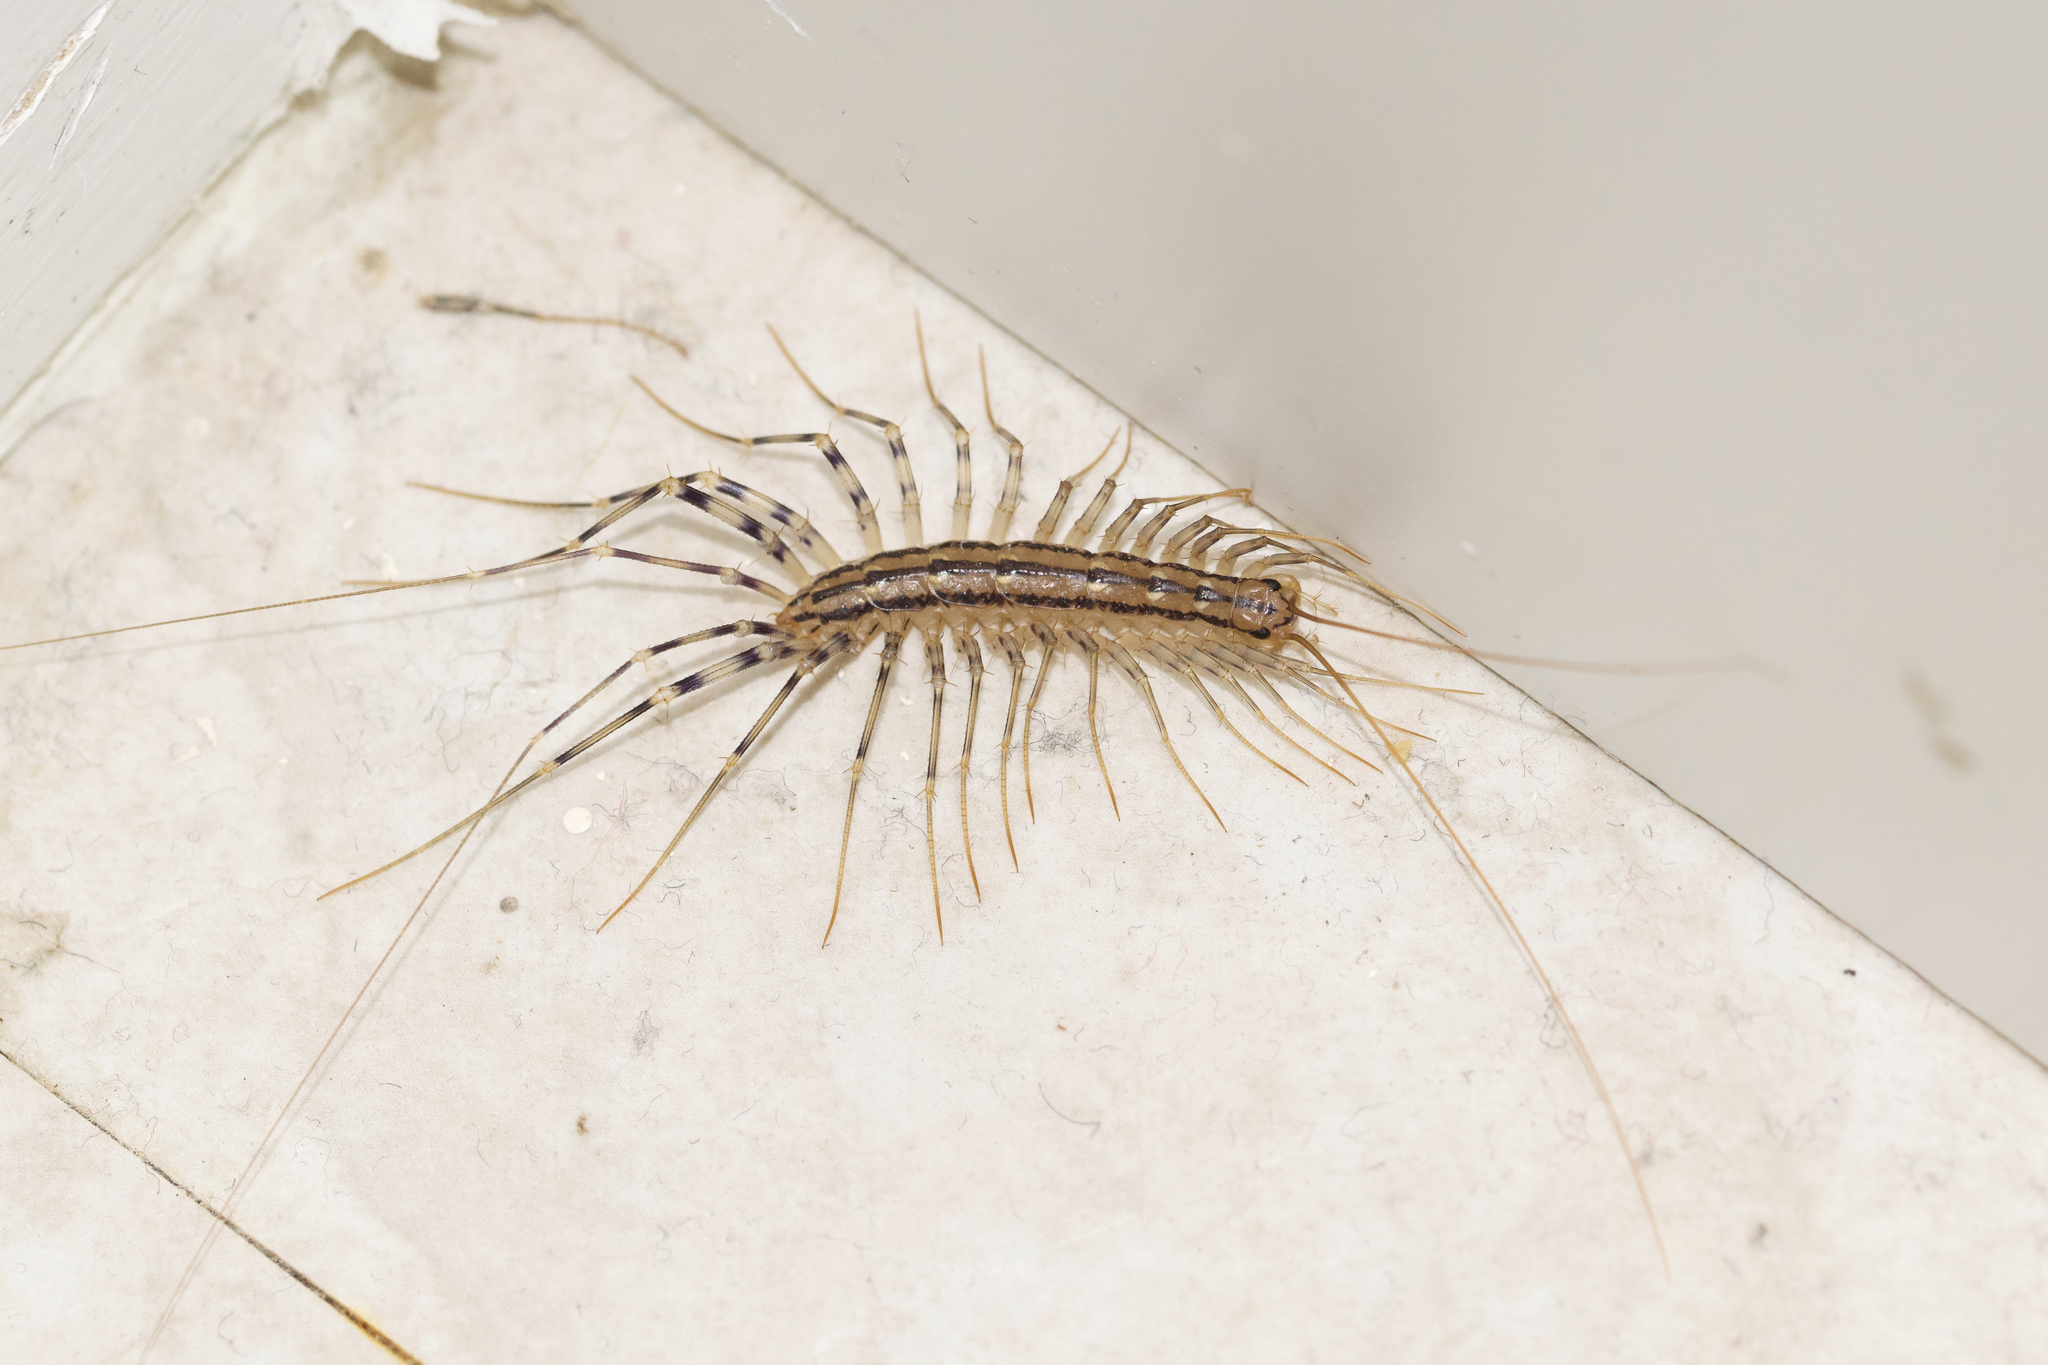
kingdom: Animalia
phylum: Arthropoda
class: Chilopoda
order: Scutigeromorpha
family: Scutigeridae
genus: Scutigera
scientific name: Scutigera coleoptrata
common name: House centipede
